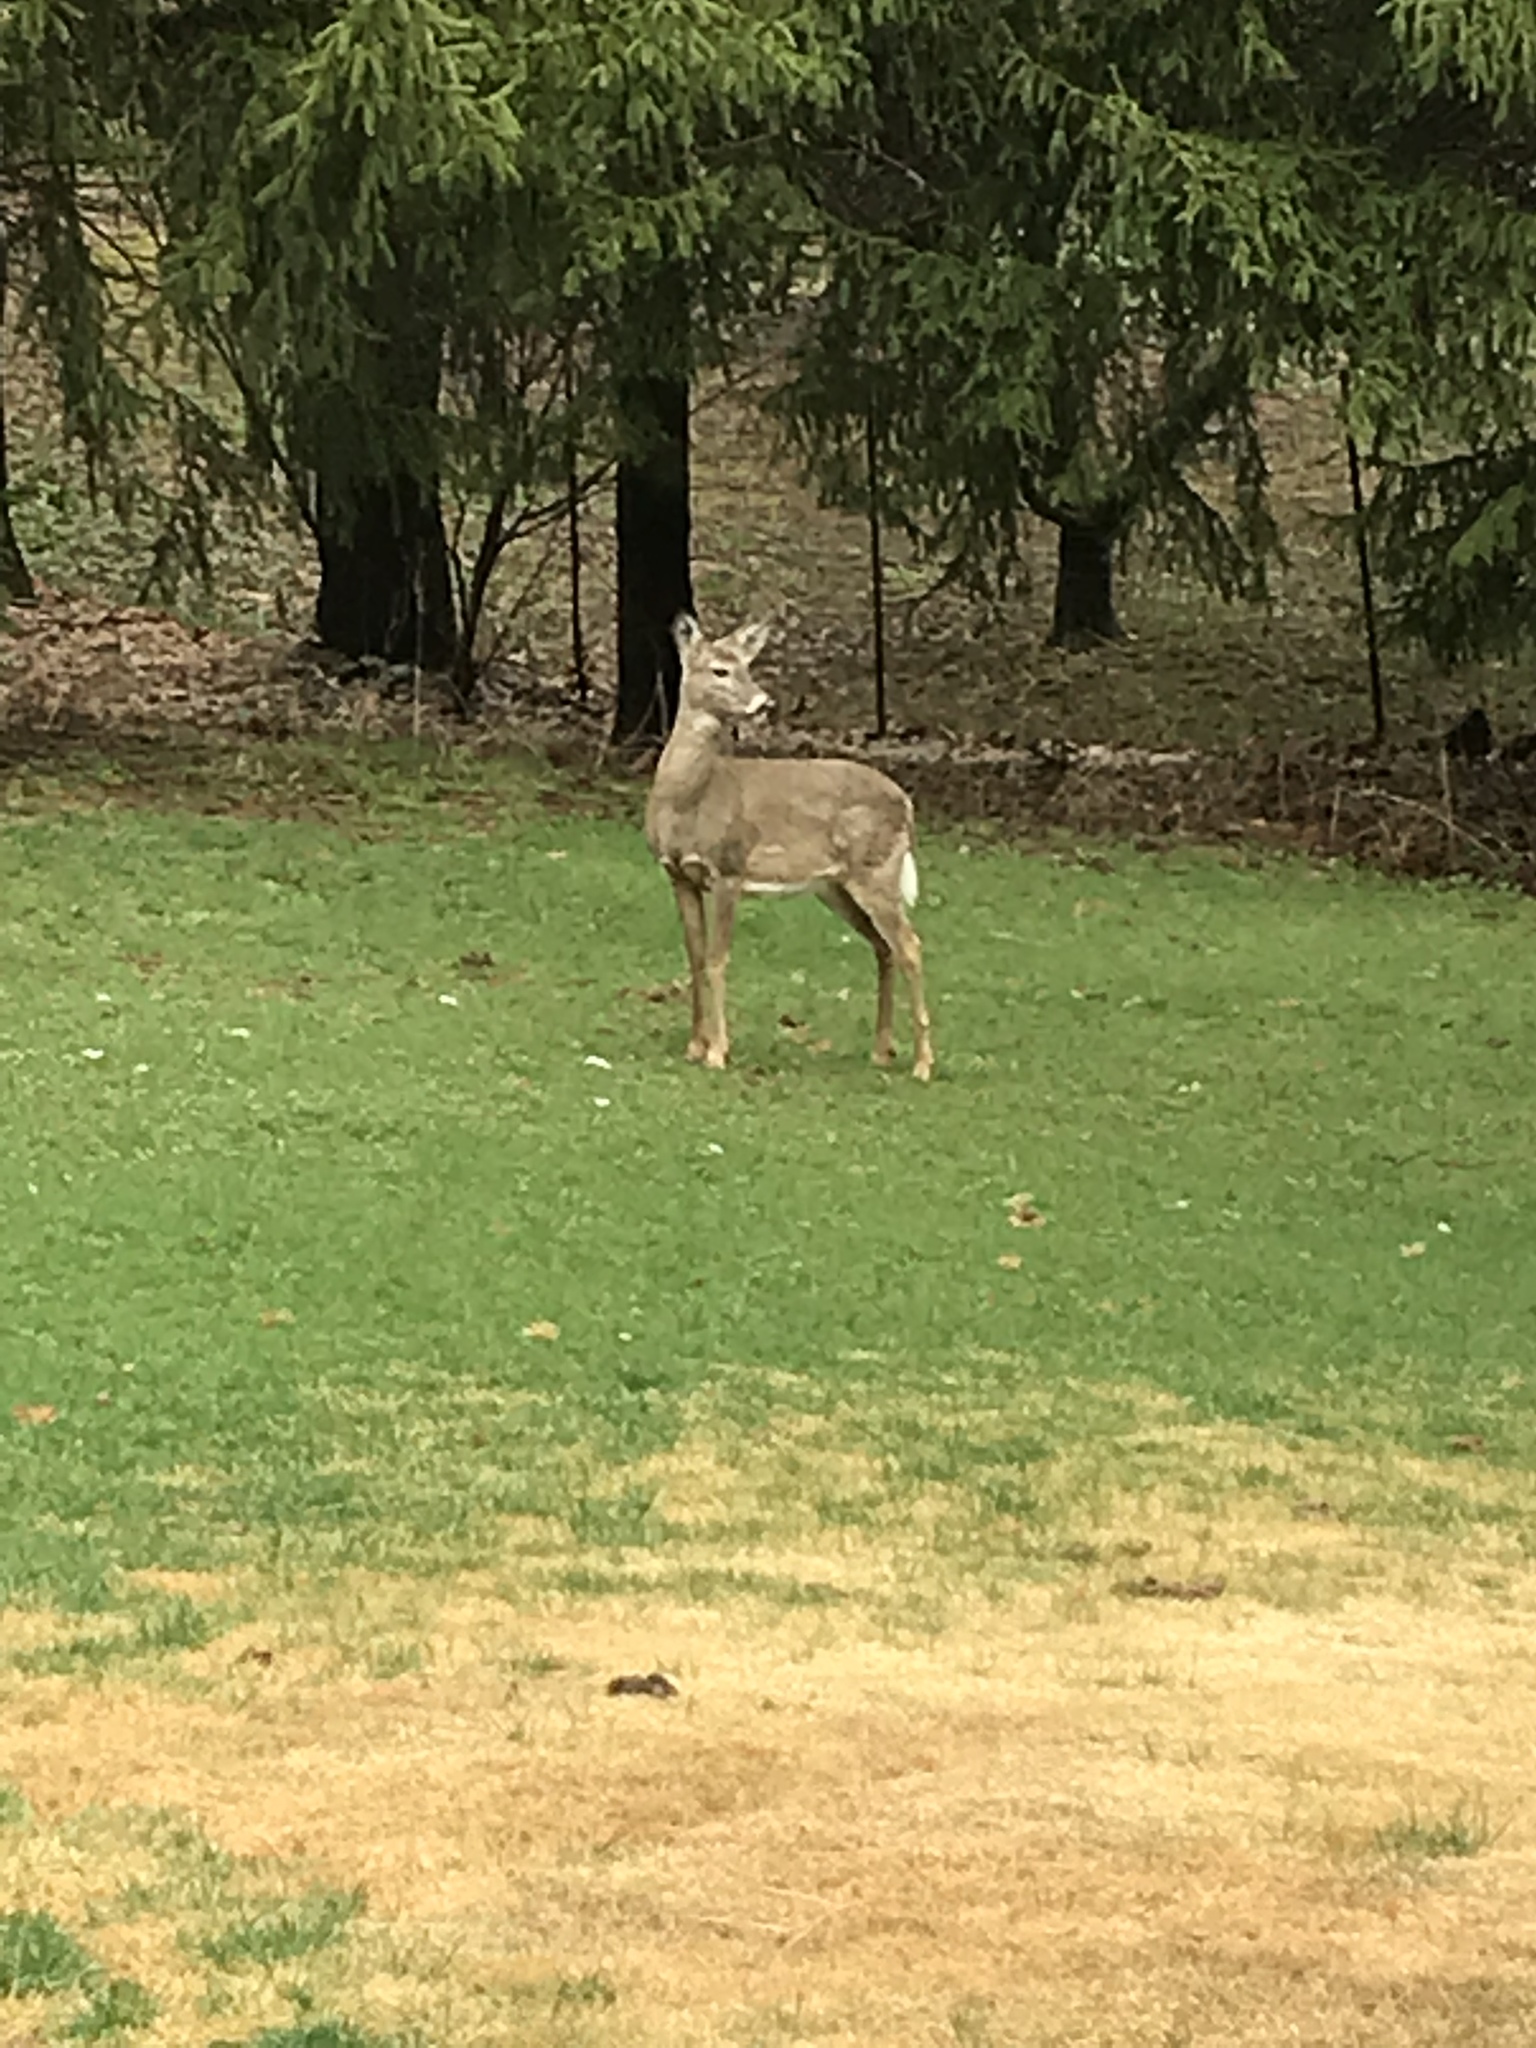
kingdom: Animalia
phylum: Chordata
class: Mammalia
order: Artiodactyla
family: Cervidae
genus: Odocoileus
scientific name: Odocoileus virginianus
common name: White-tailed deer
